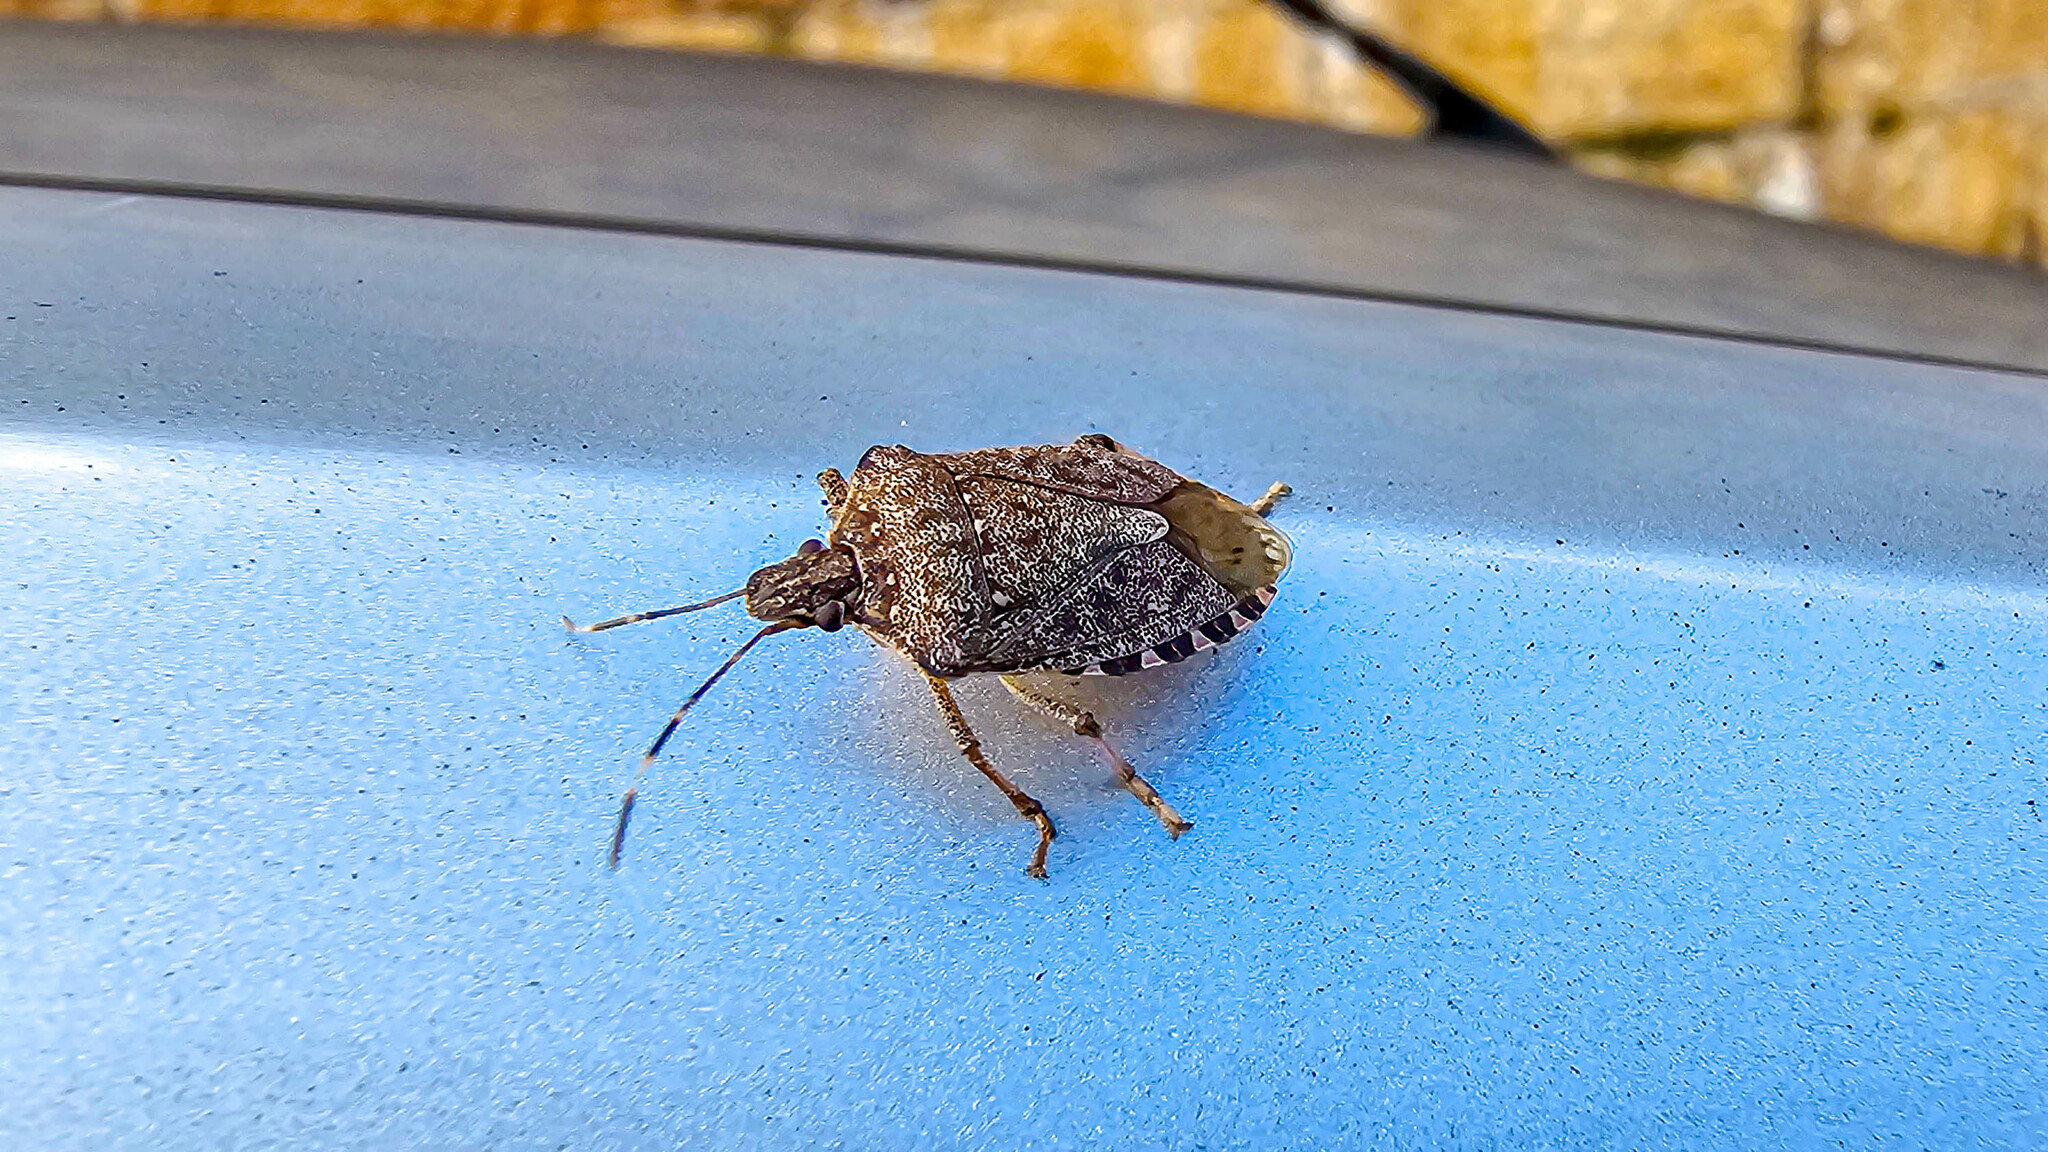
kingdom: Animalia
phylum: Arthropoda
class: Insecta
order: Hemiptera
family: Pentatomidae
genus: Halyomorpha
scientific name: Halyomorpha halys
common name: Brown marmorated stink bug
